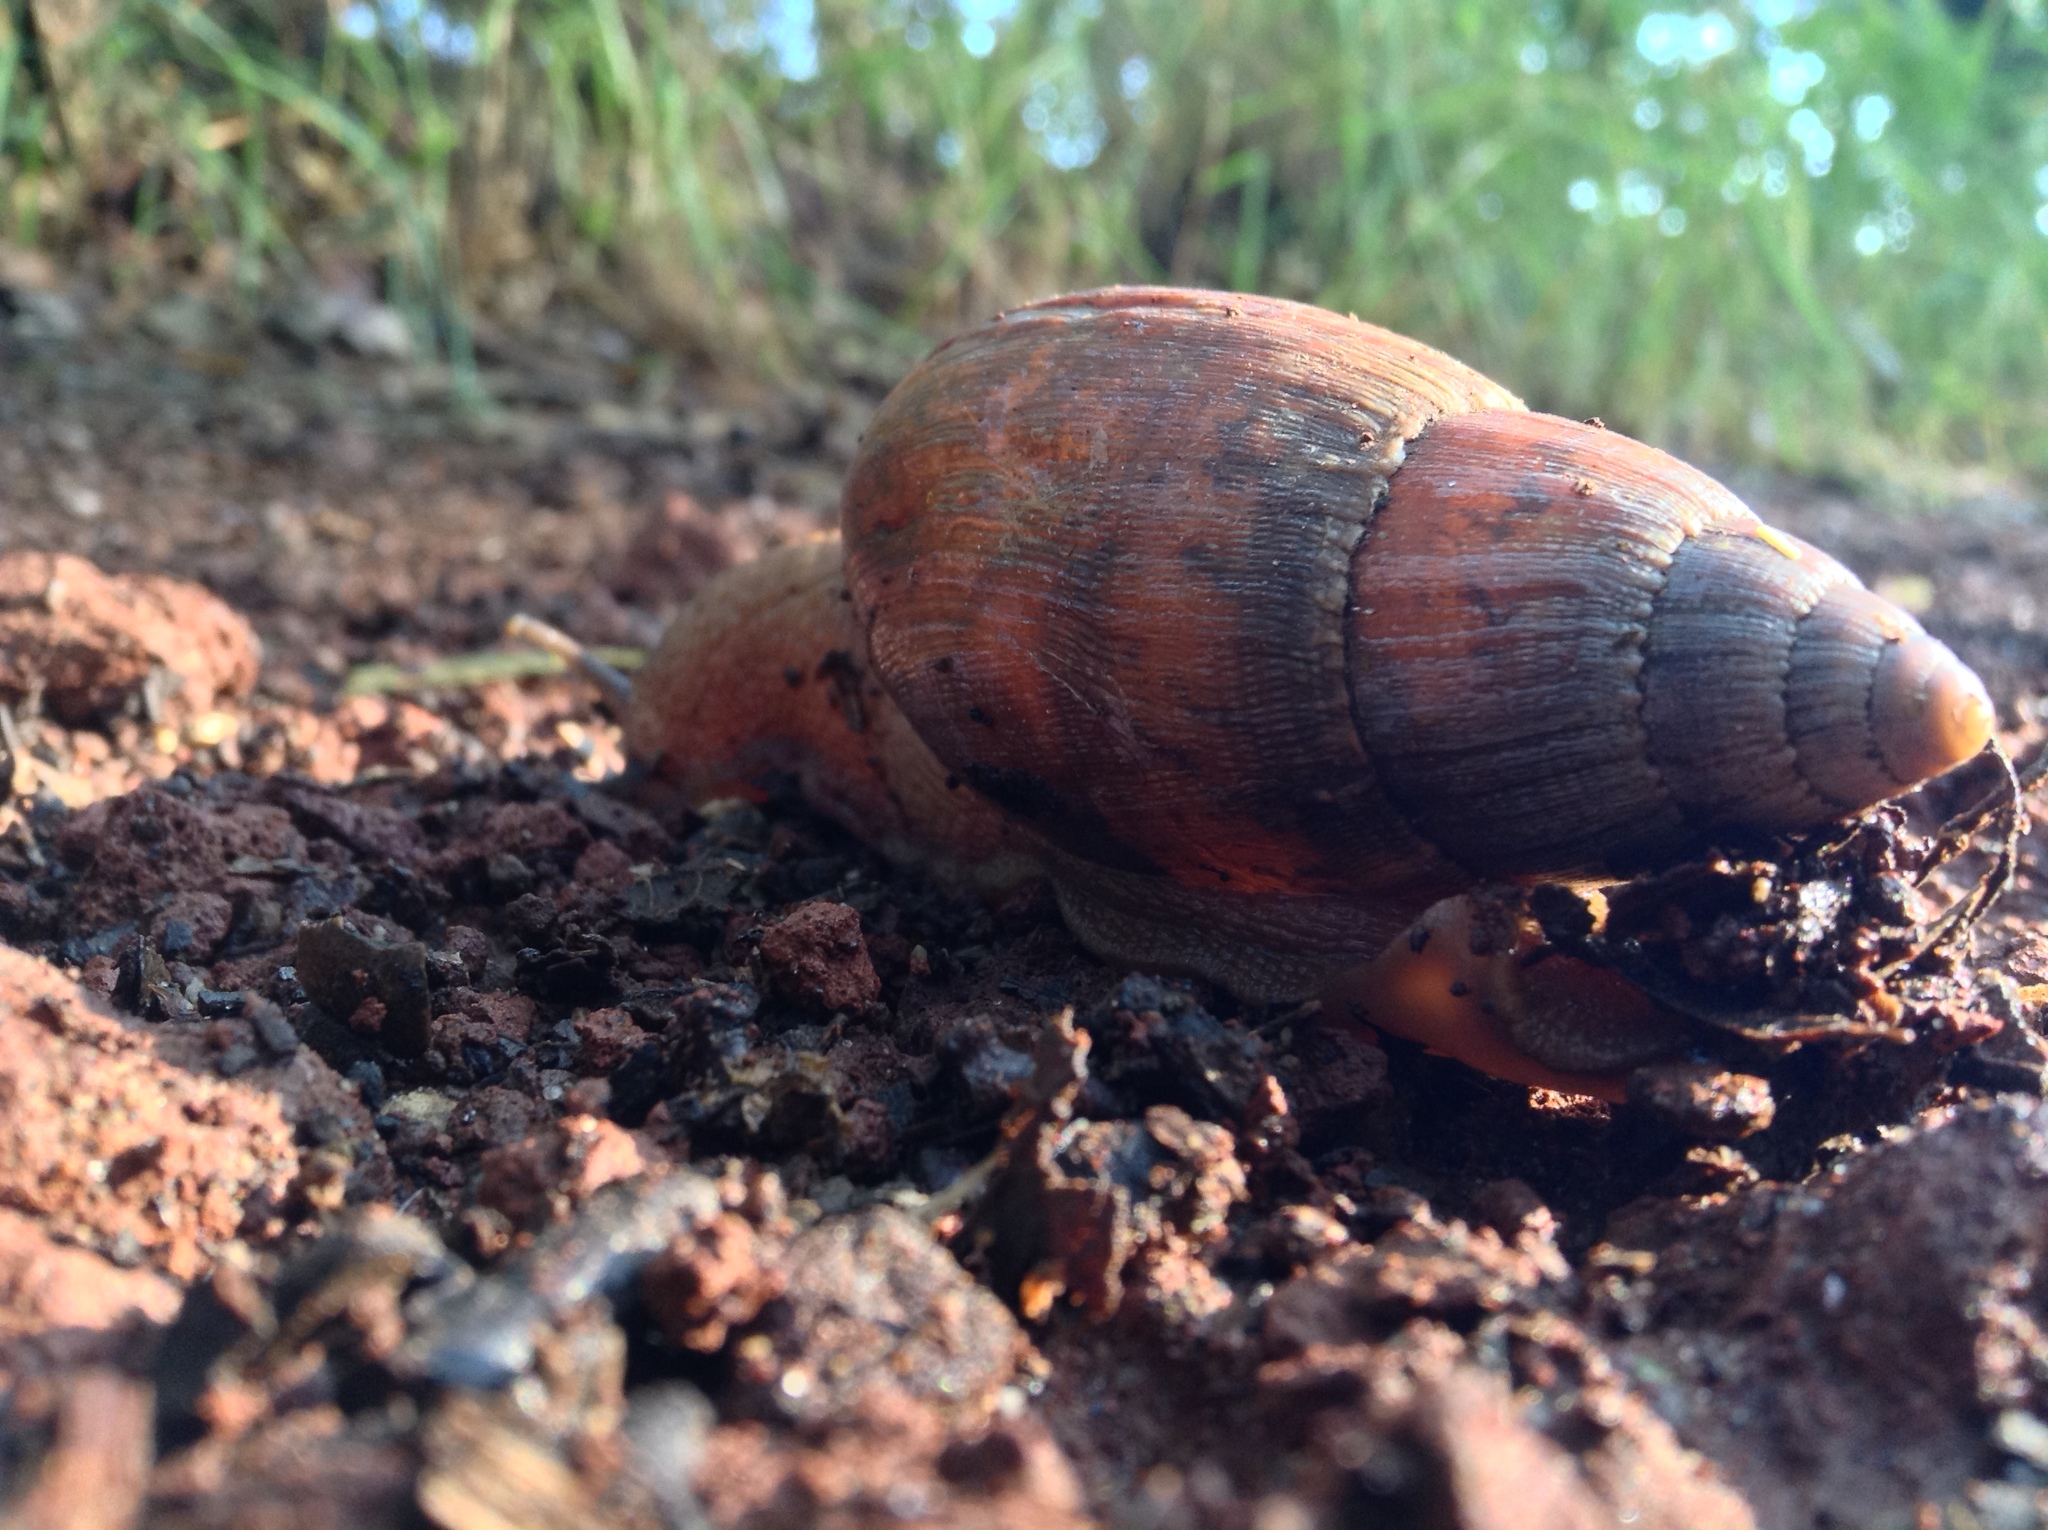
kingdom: Animalia
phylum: Mollusca
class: Gastropoda
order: Stylommatophora
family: Spiraxidae
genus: Euglandina
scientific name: Euglandina
